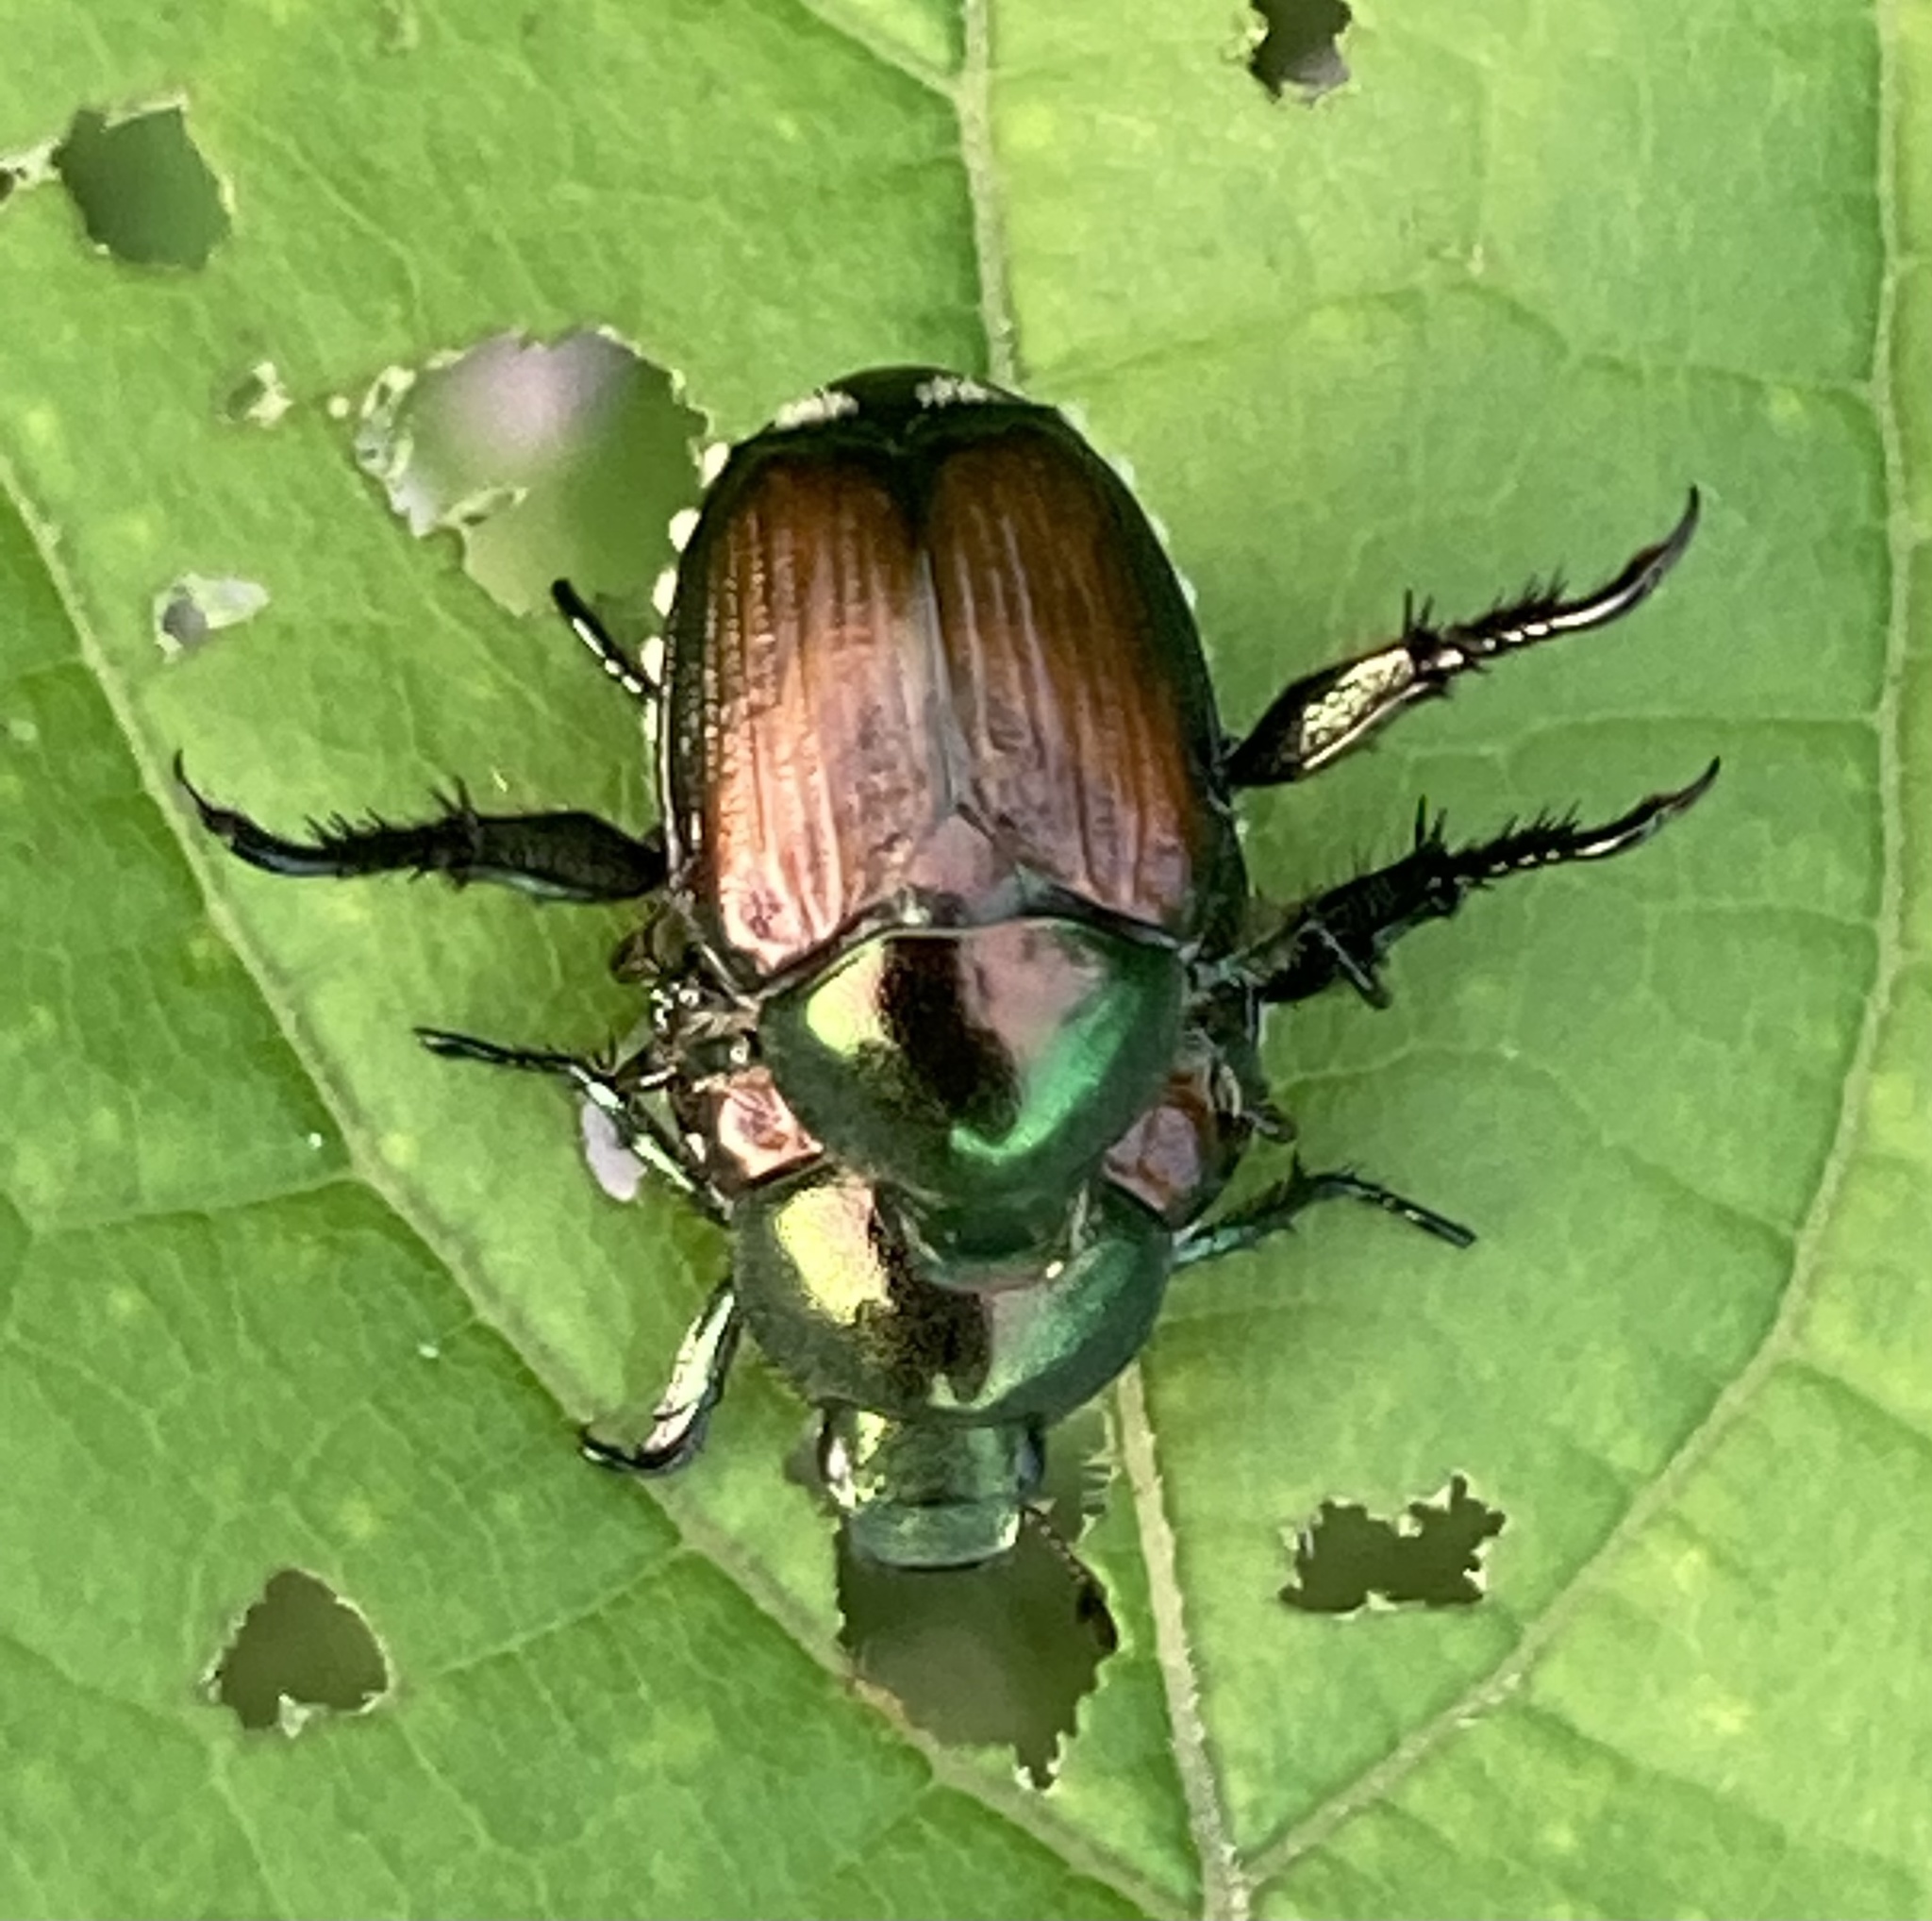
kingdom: Animalia
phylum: Arthropoda
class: Insecta
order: Coleoptera
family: Scarabaeidae
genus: Popillia
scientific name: Popillia japonica
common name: Japanese beetle
